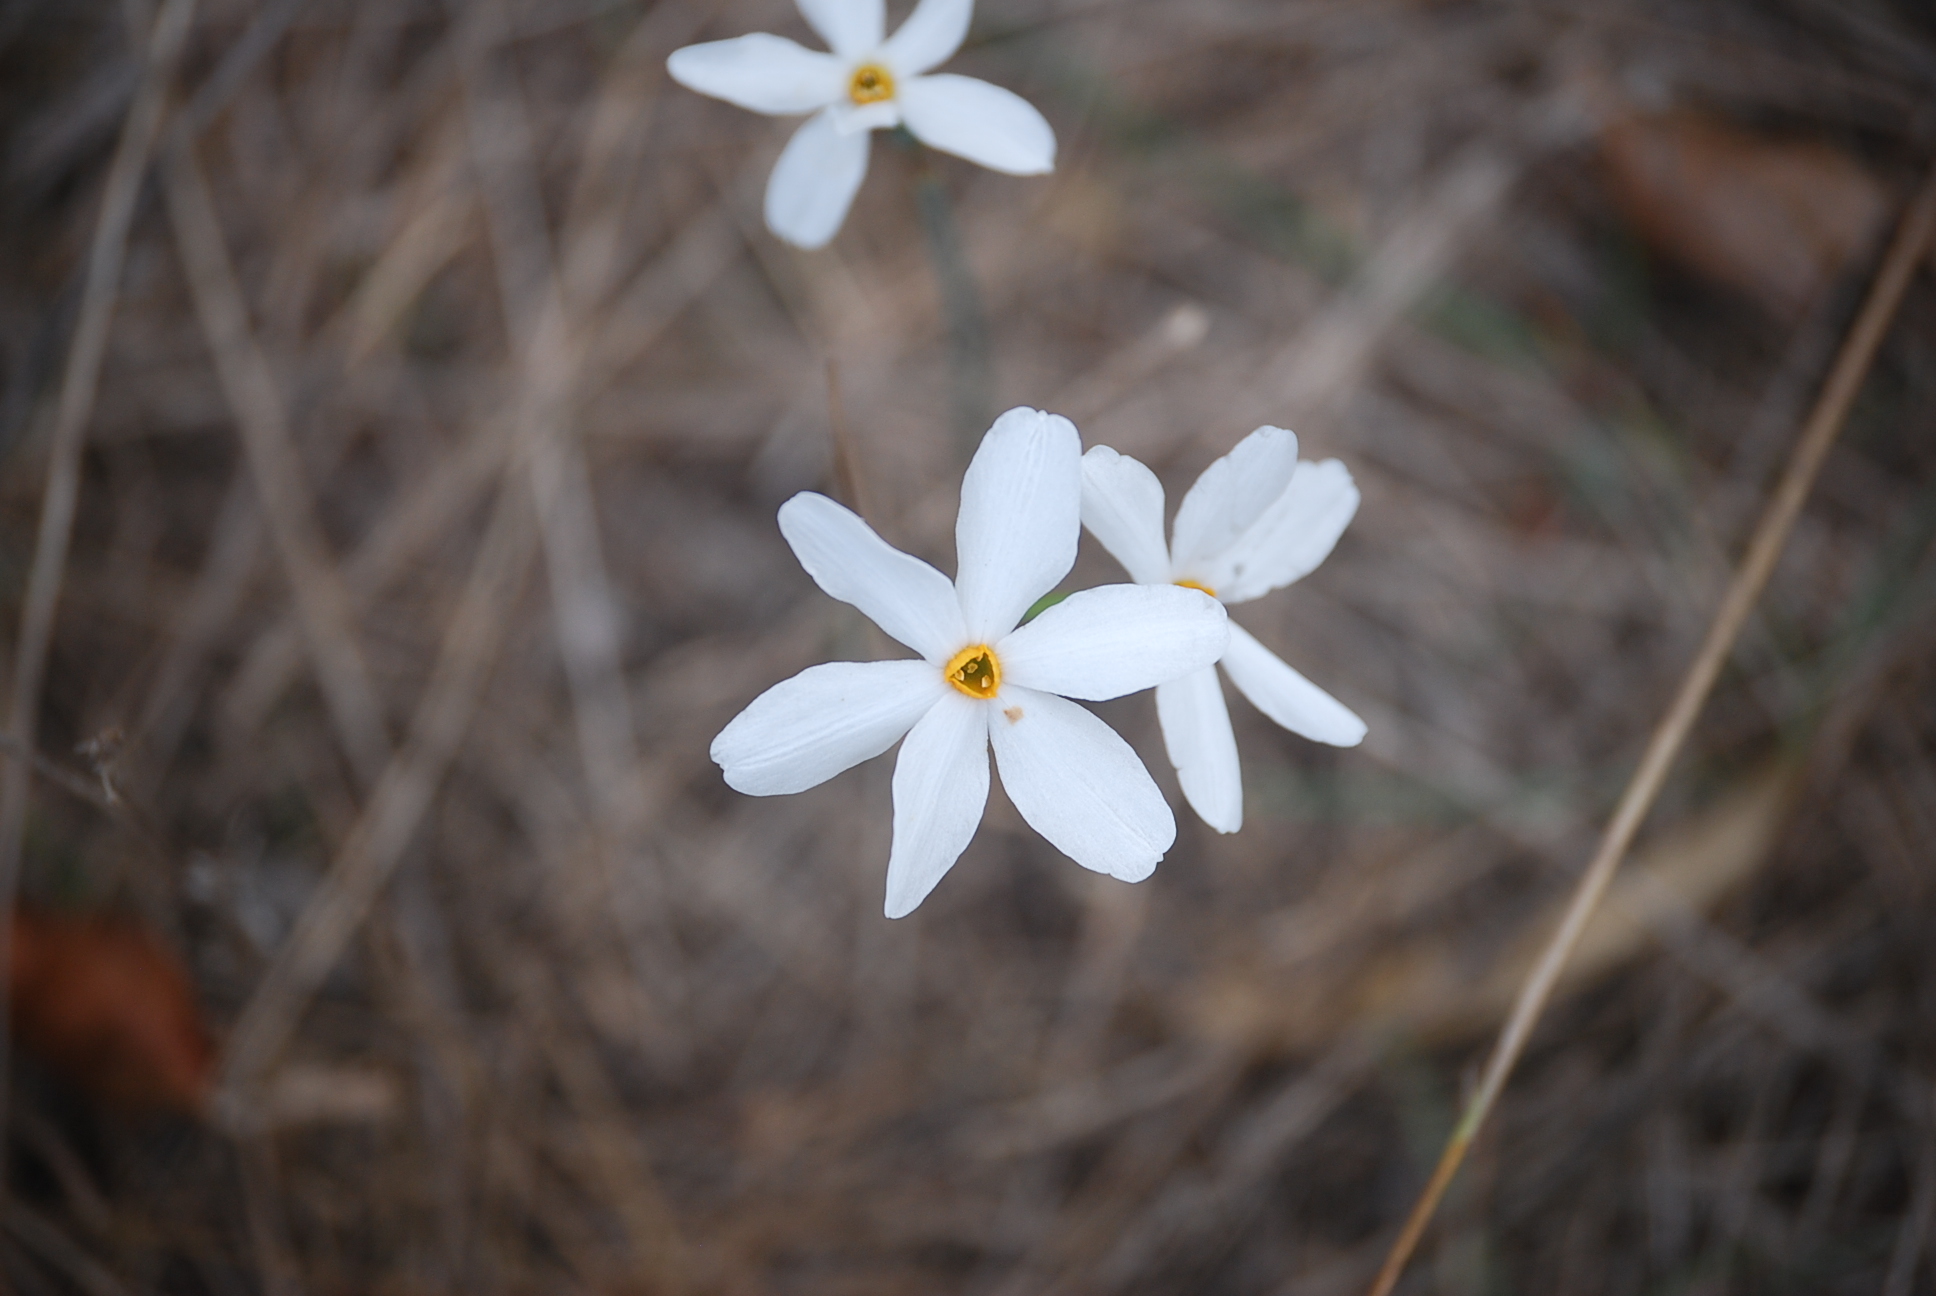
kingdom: Plantae
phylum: Tracheophyta
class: Liliopsida
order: Asparagales
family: Amaryllidaceae
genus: Narcissus
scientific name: Narcissus deficiens
